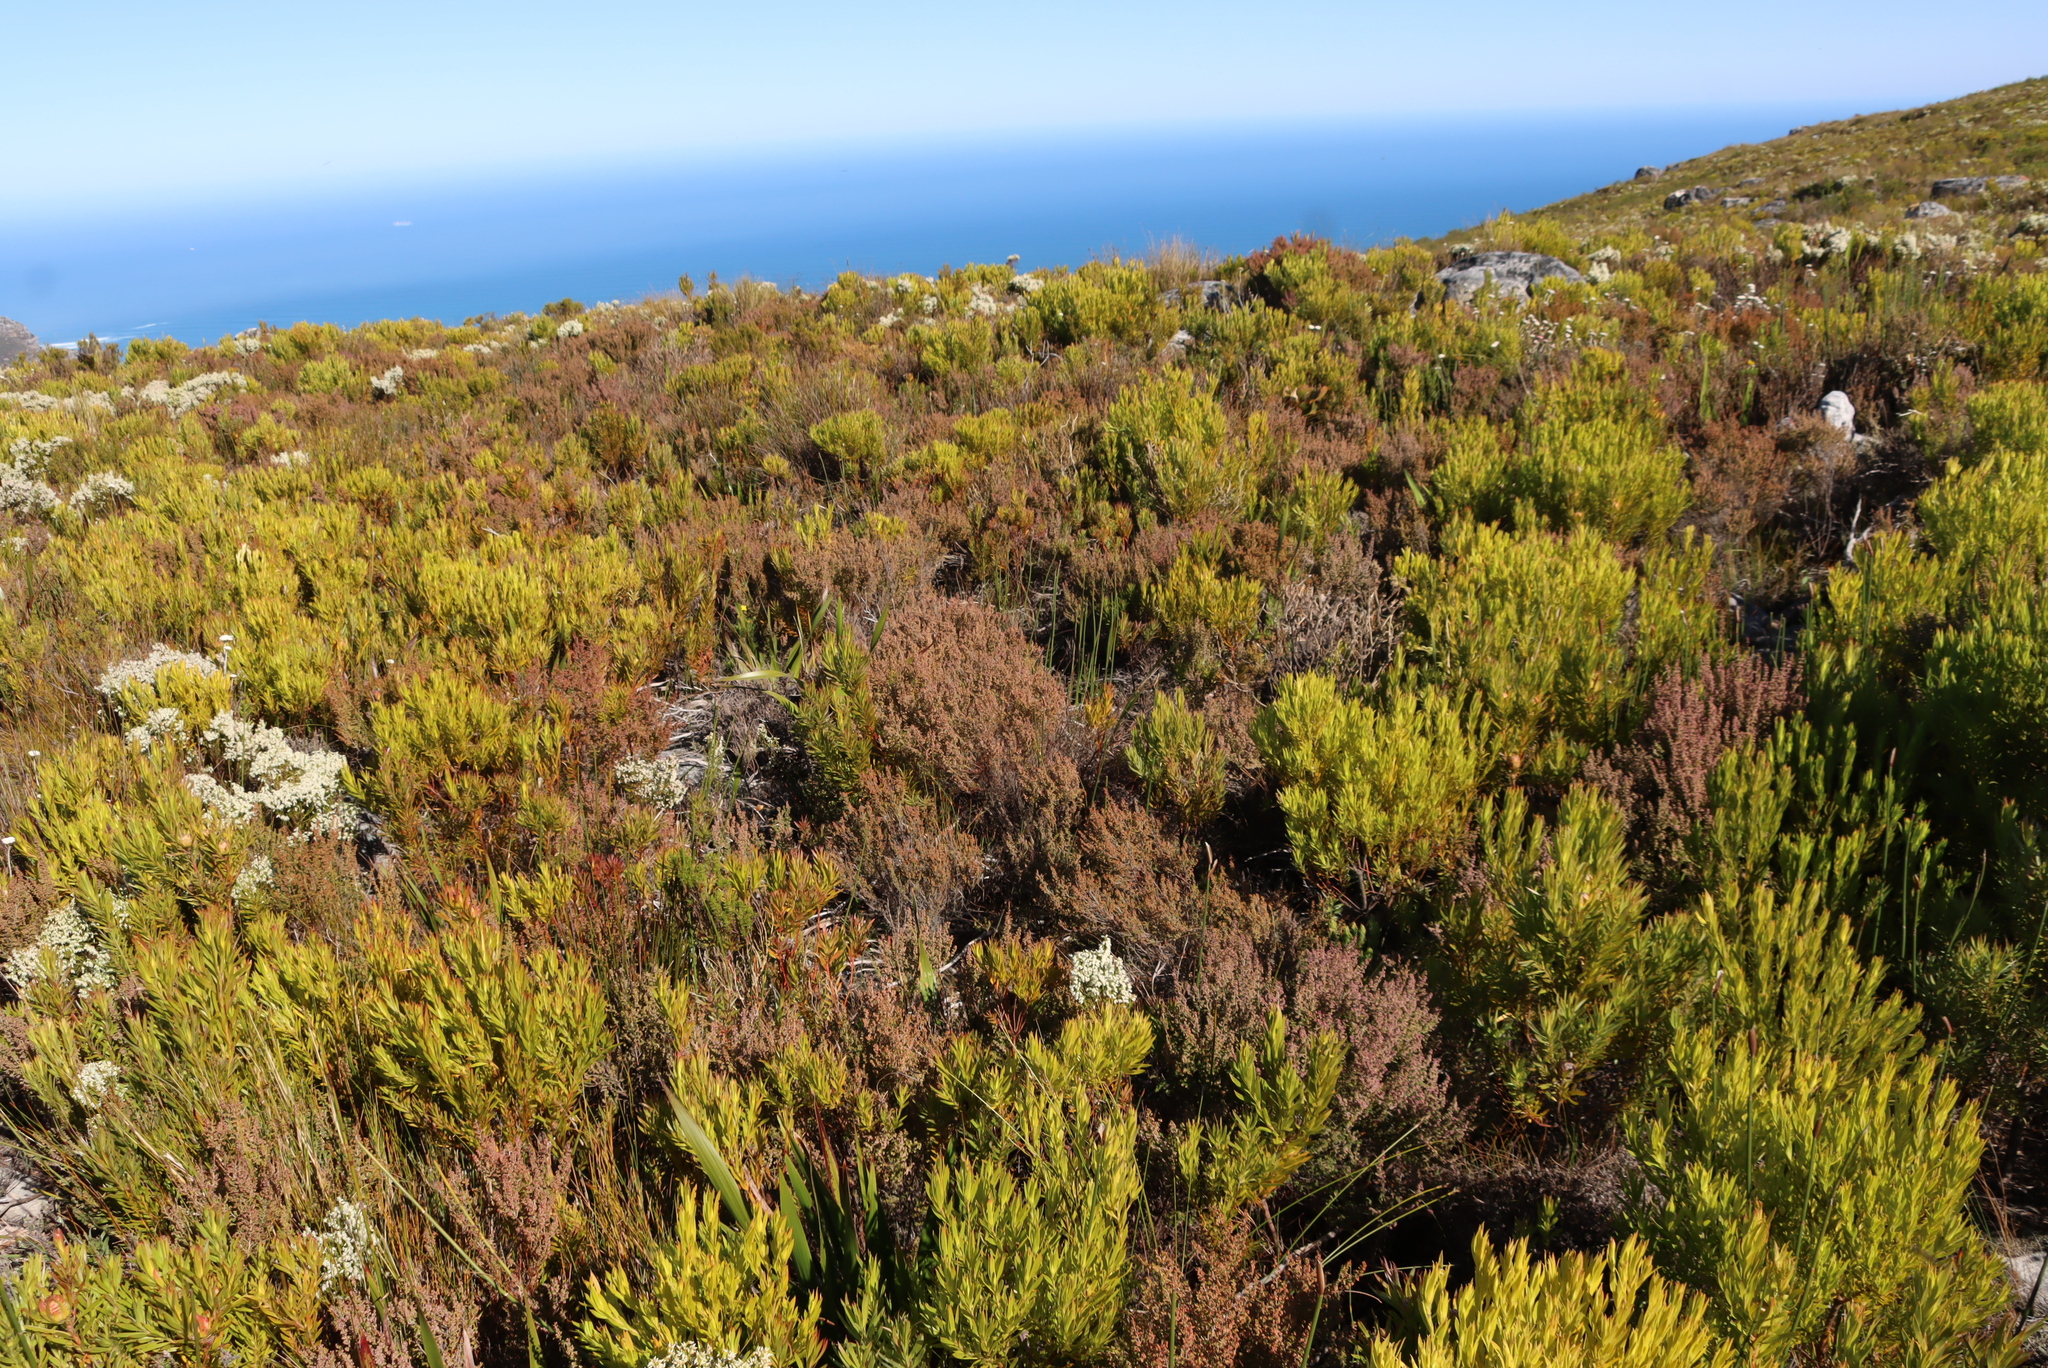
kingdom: Plantae
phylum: Tracheophyta
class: Magnoliopsida
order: Proteales
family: Proteaceae
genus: Leucadendron
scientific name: Leucadendron xanthoconus
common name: Sickle-leaf conebush
